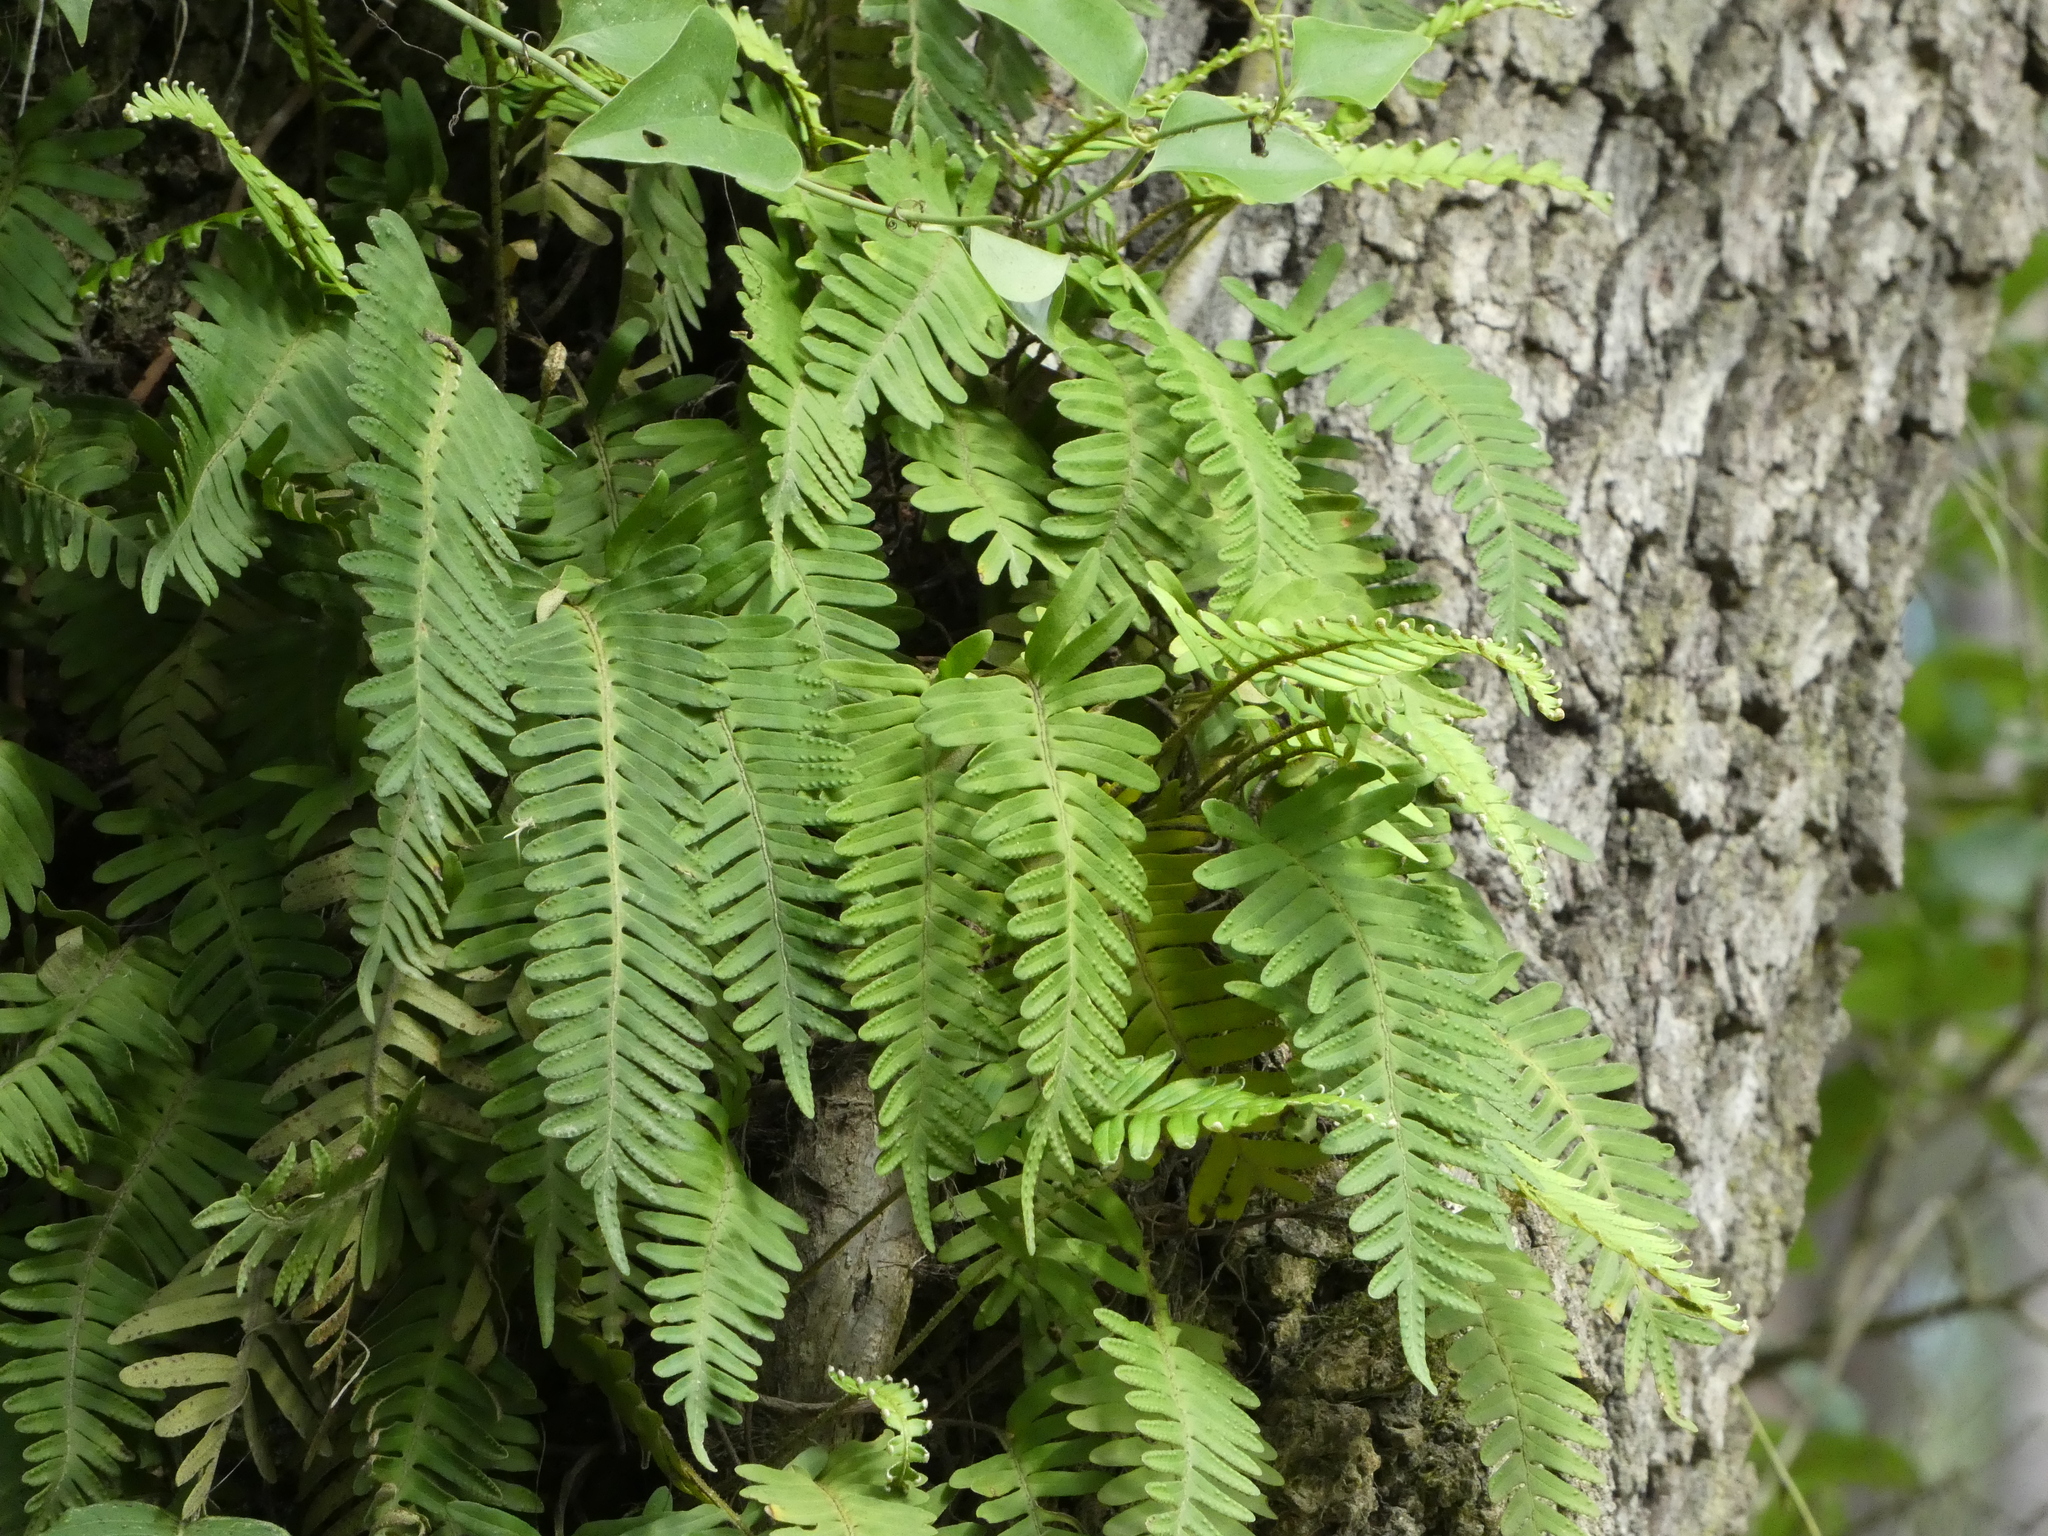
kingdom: Plantae
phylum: Tracheophyta
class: Polypodiopsida
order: Polypodiales
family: Polypodiaceae
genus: Pleopeltis
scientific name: Pleopeltis michauxiana
